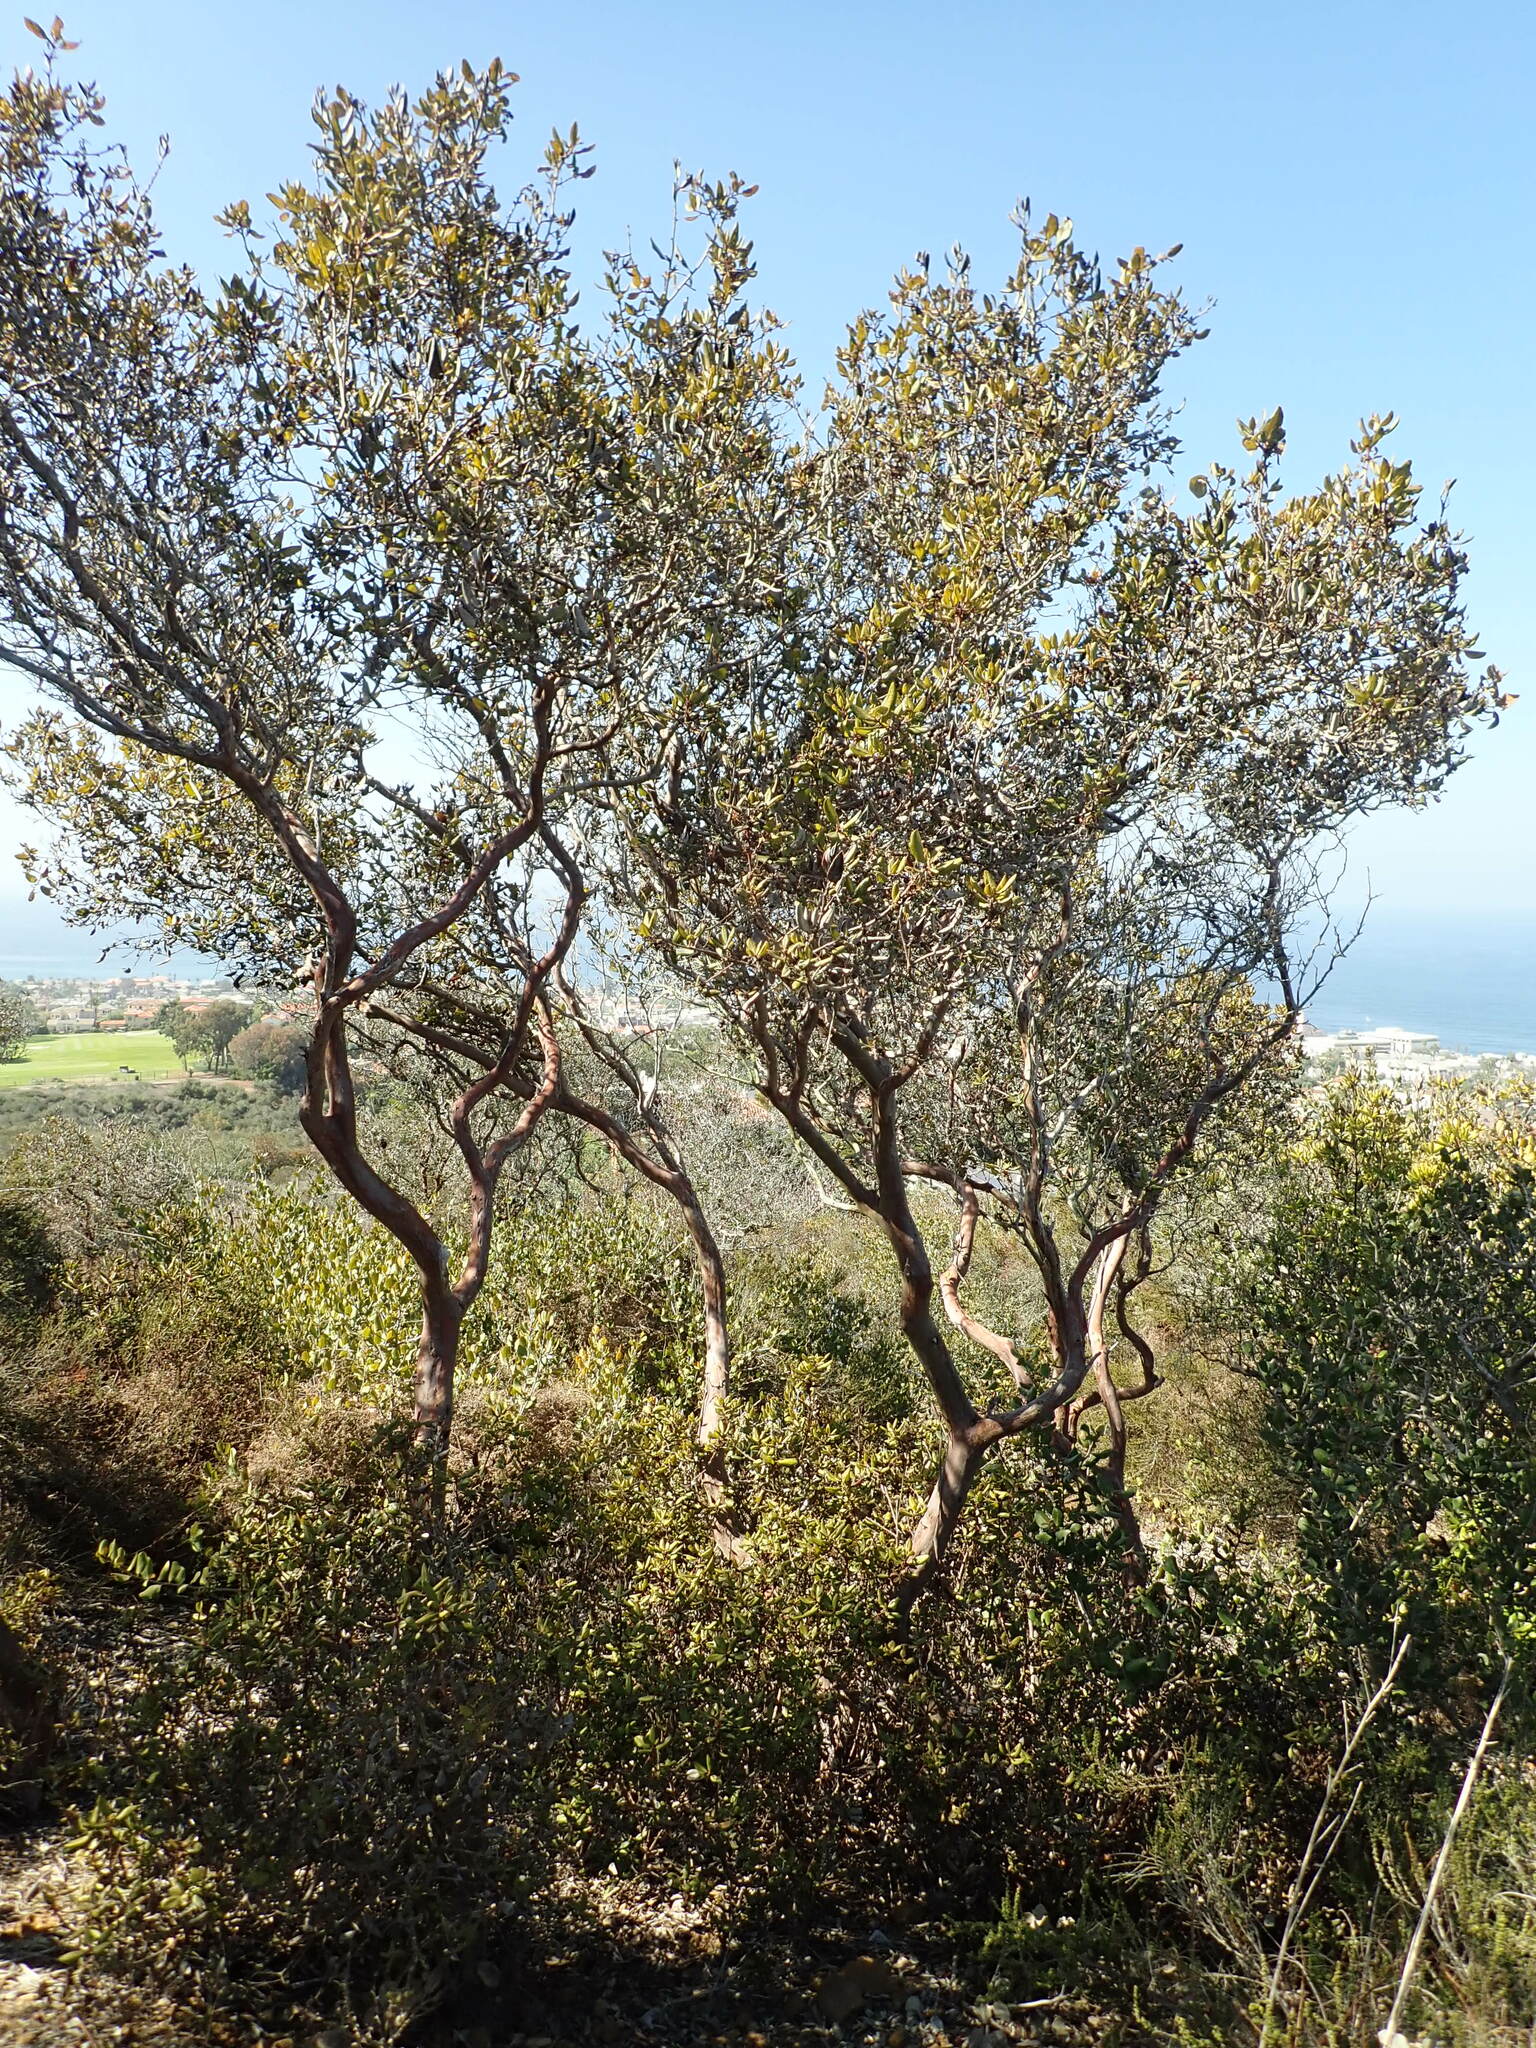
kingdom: Plantae
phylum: Tracheophyta
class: Magnoliopsida
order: Ericales
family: Ericaceae
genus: Arctostaphylos
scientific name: Arctostaphylos bicolor
